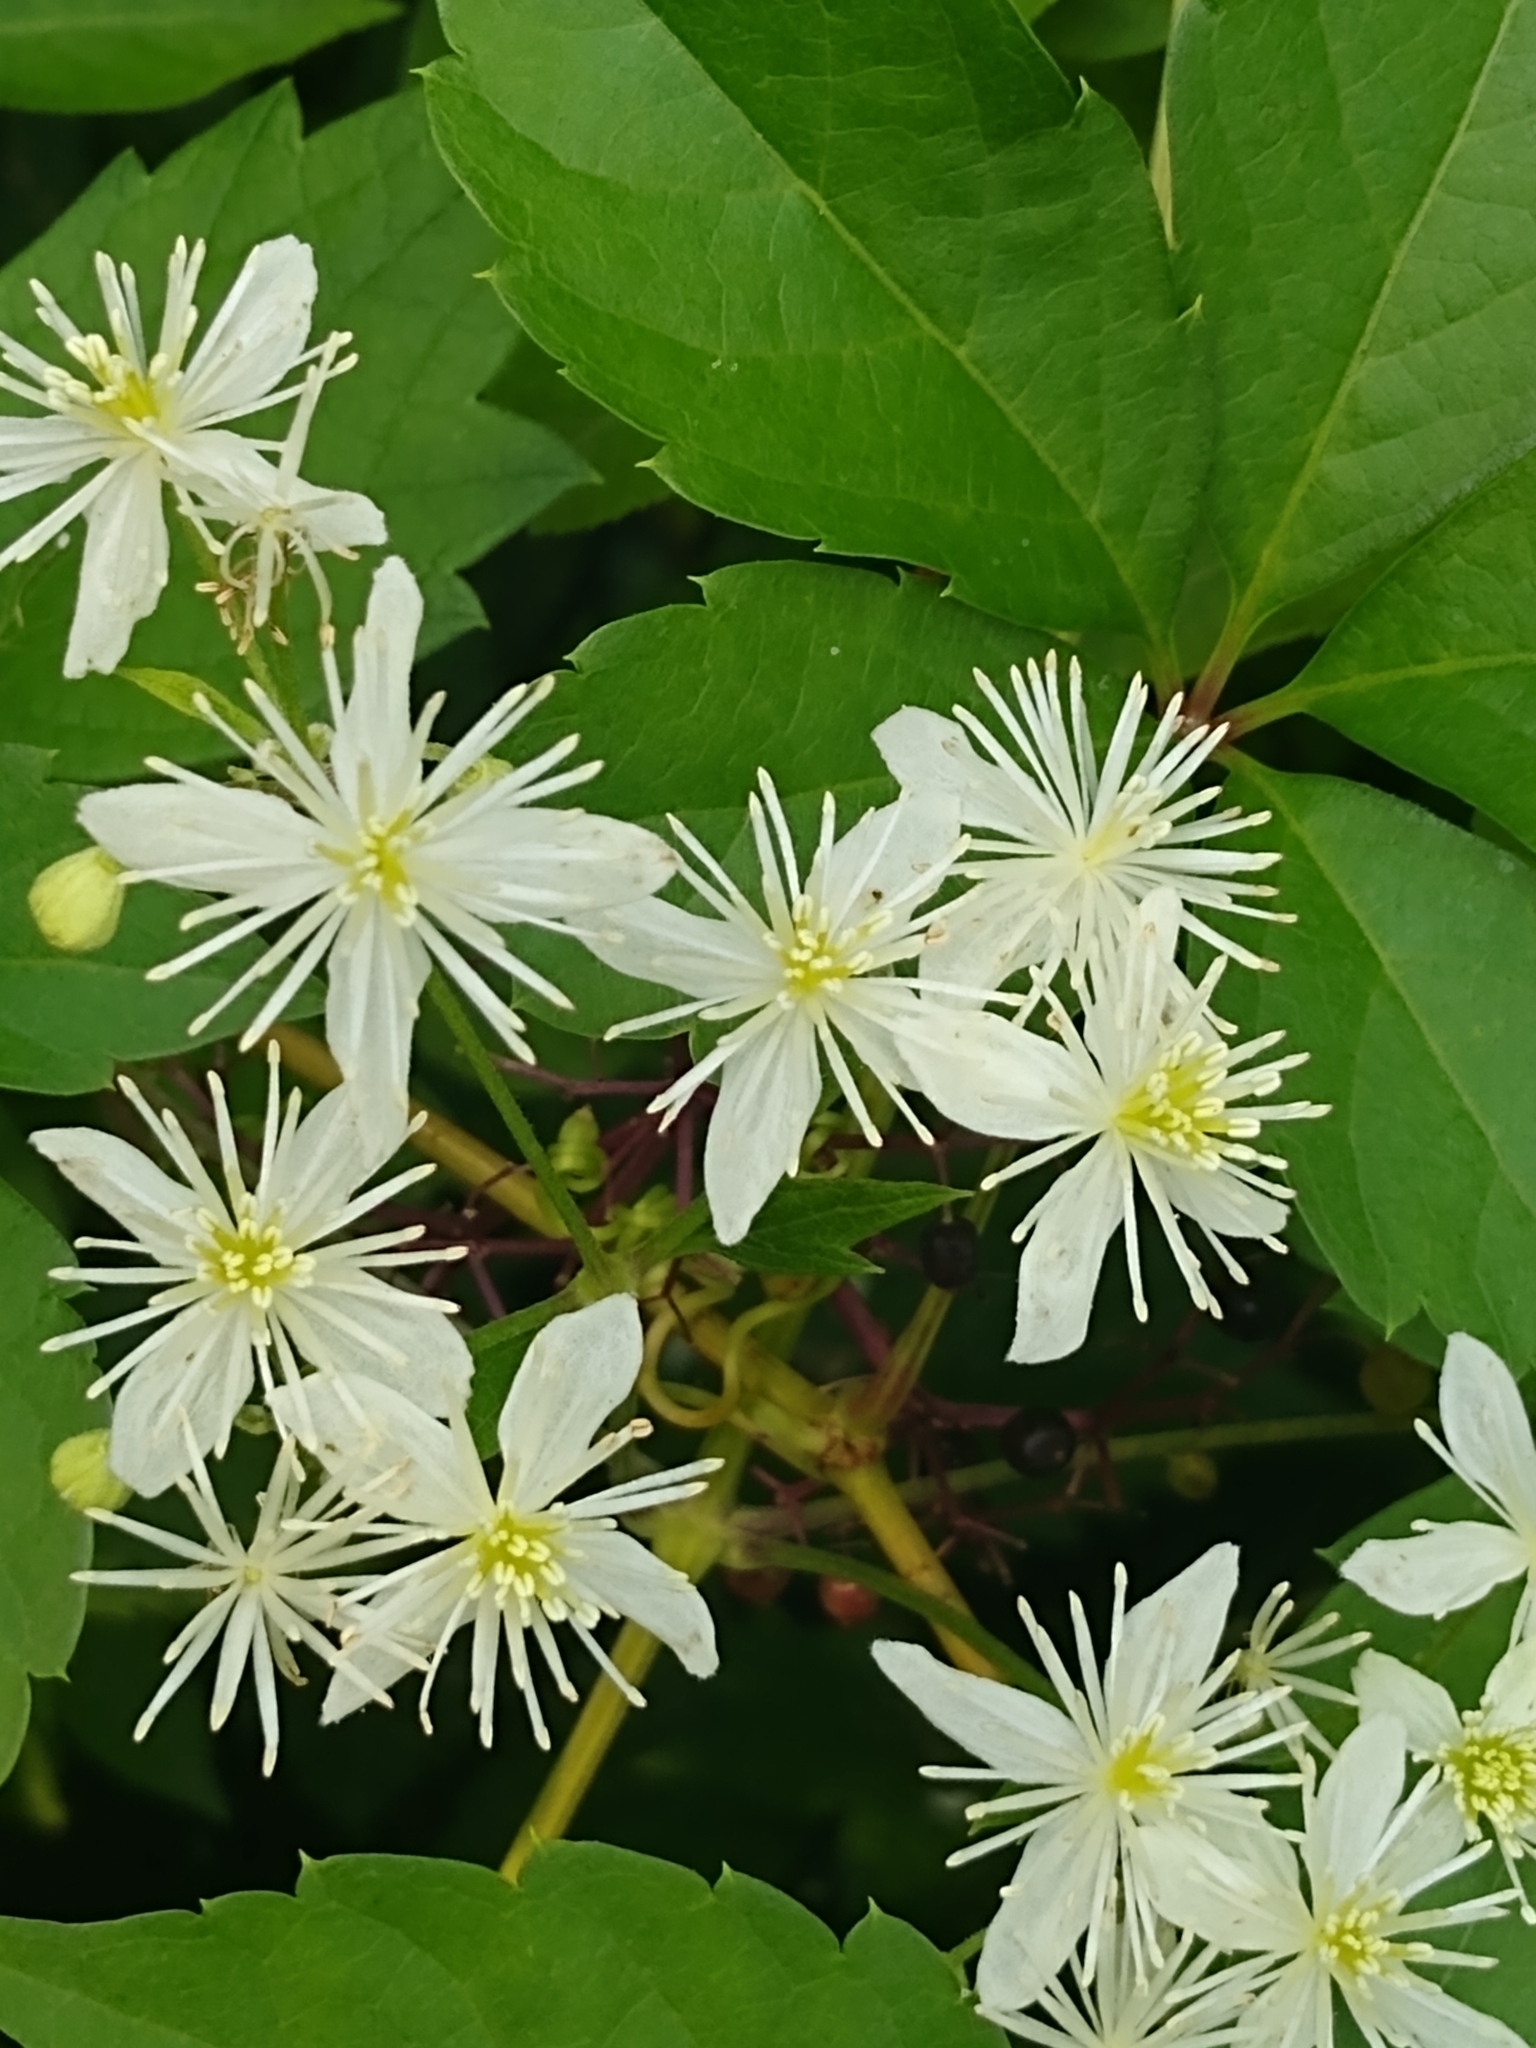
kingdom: Plantae
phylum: Tracheophyta
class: Magnoliopsida
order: Ranunculales
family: Ranunculaceae
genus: Clematis
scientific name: Clematis virginiana
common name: Virgin's-bower
